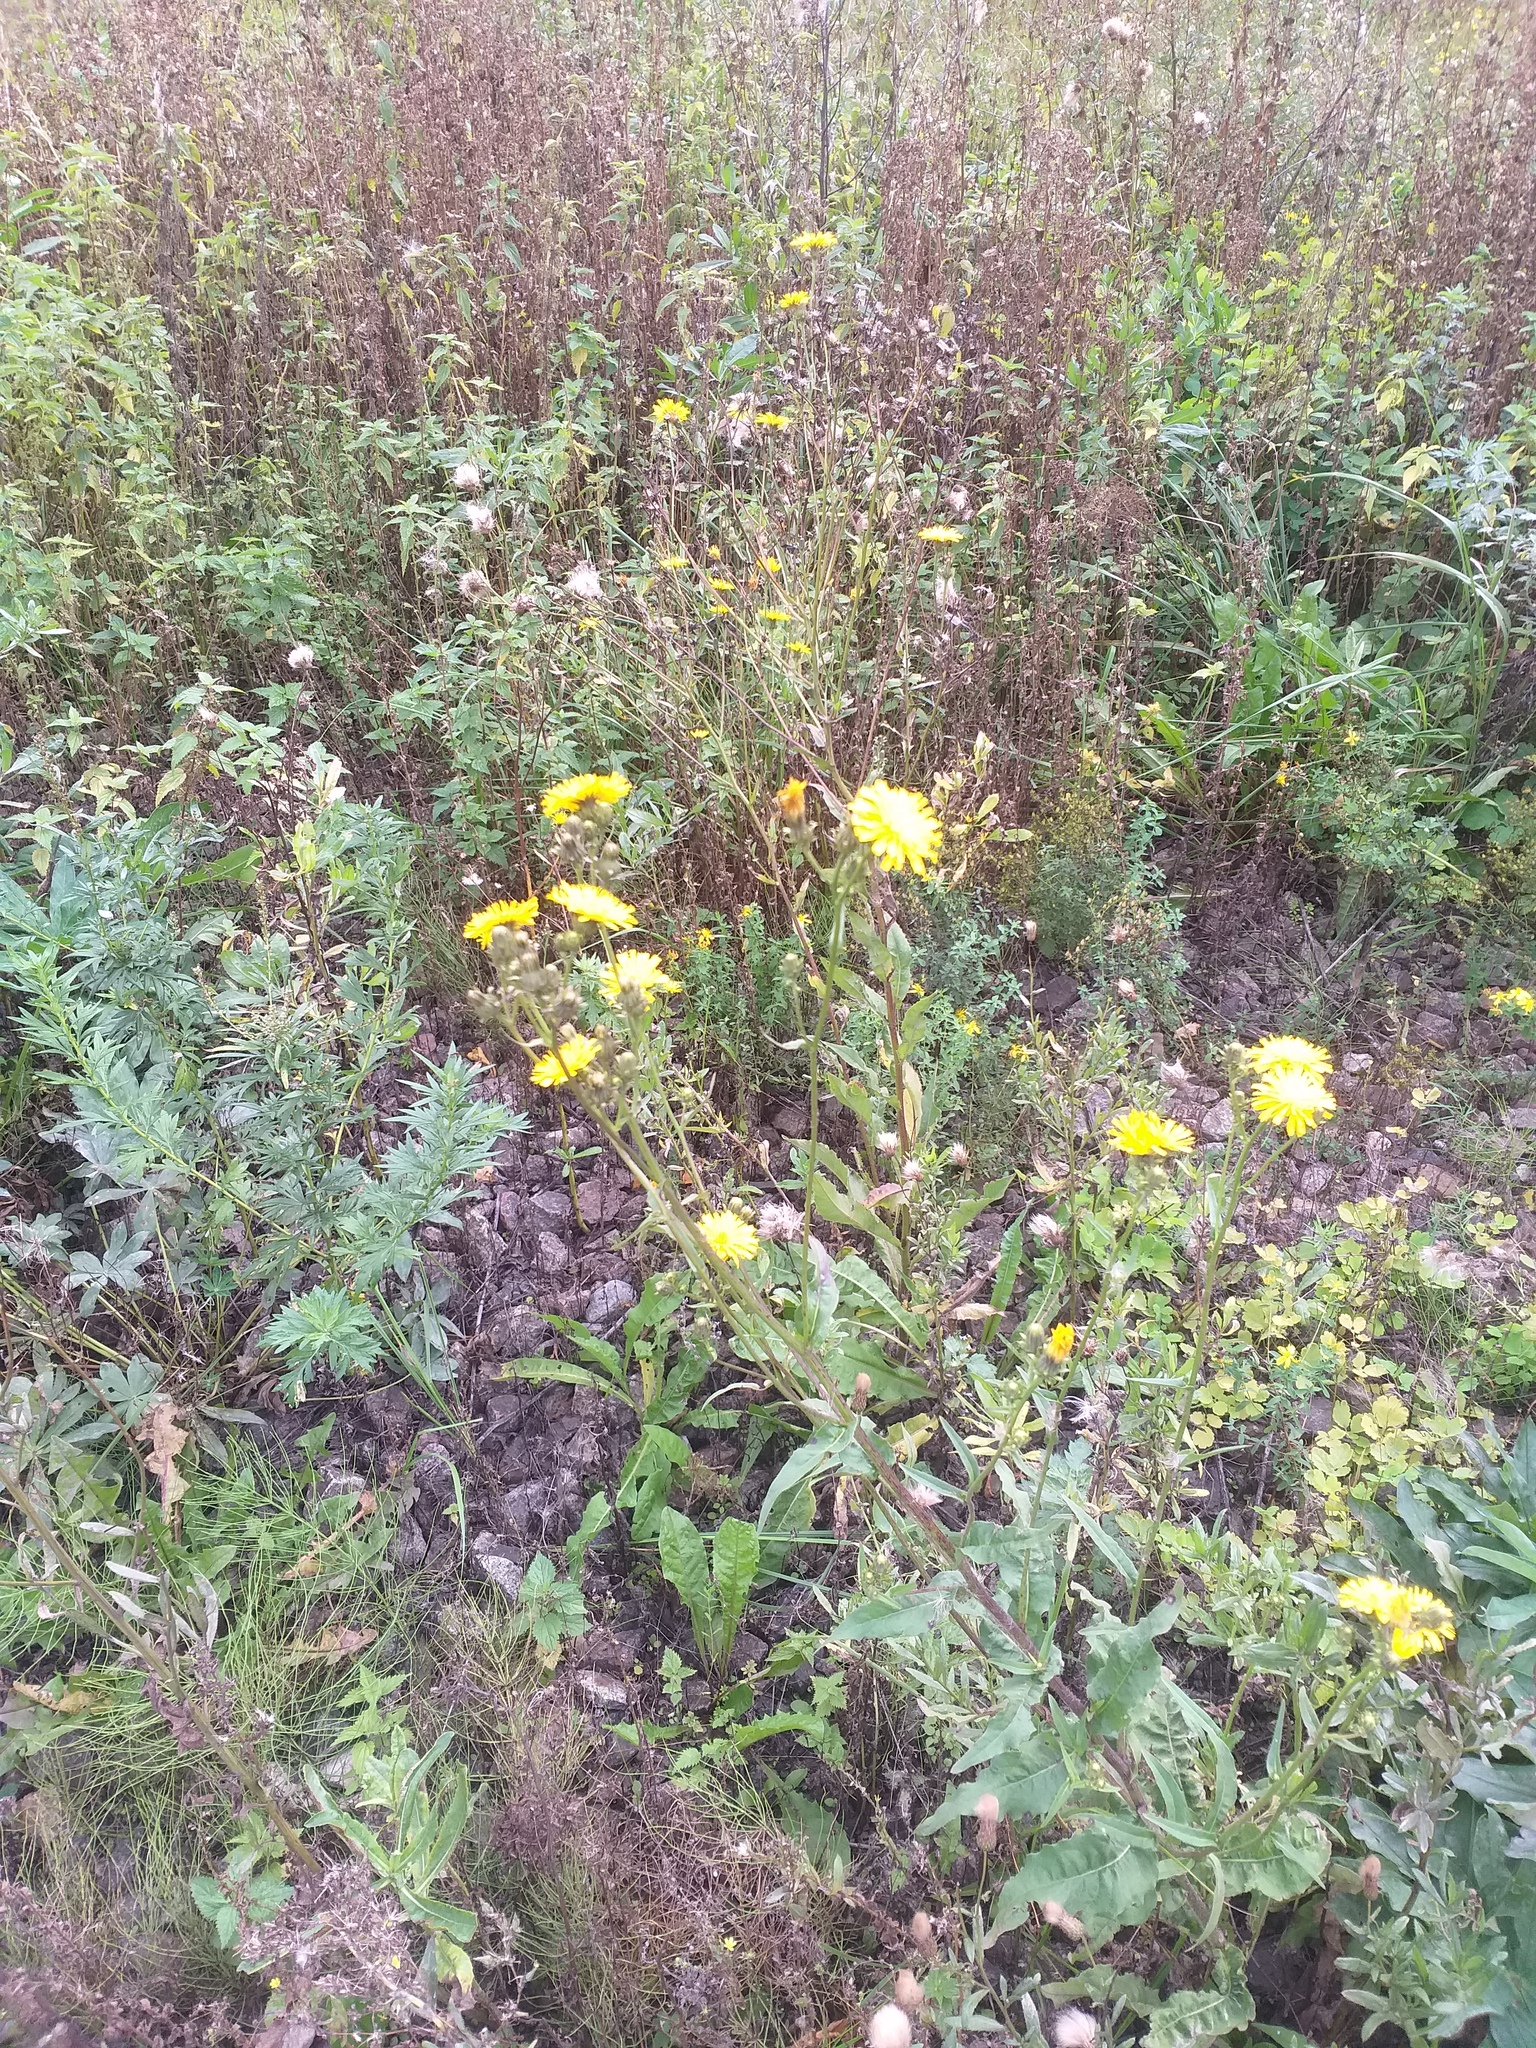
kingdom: Plantae
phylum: Tracheophyta
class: Magnoliopsida
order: Asterales
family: Asteraceae
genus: Picris
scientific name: Picris hieracioides
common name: Hawkweed oxtongue
